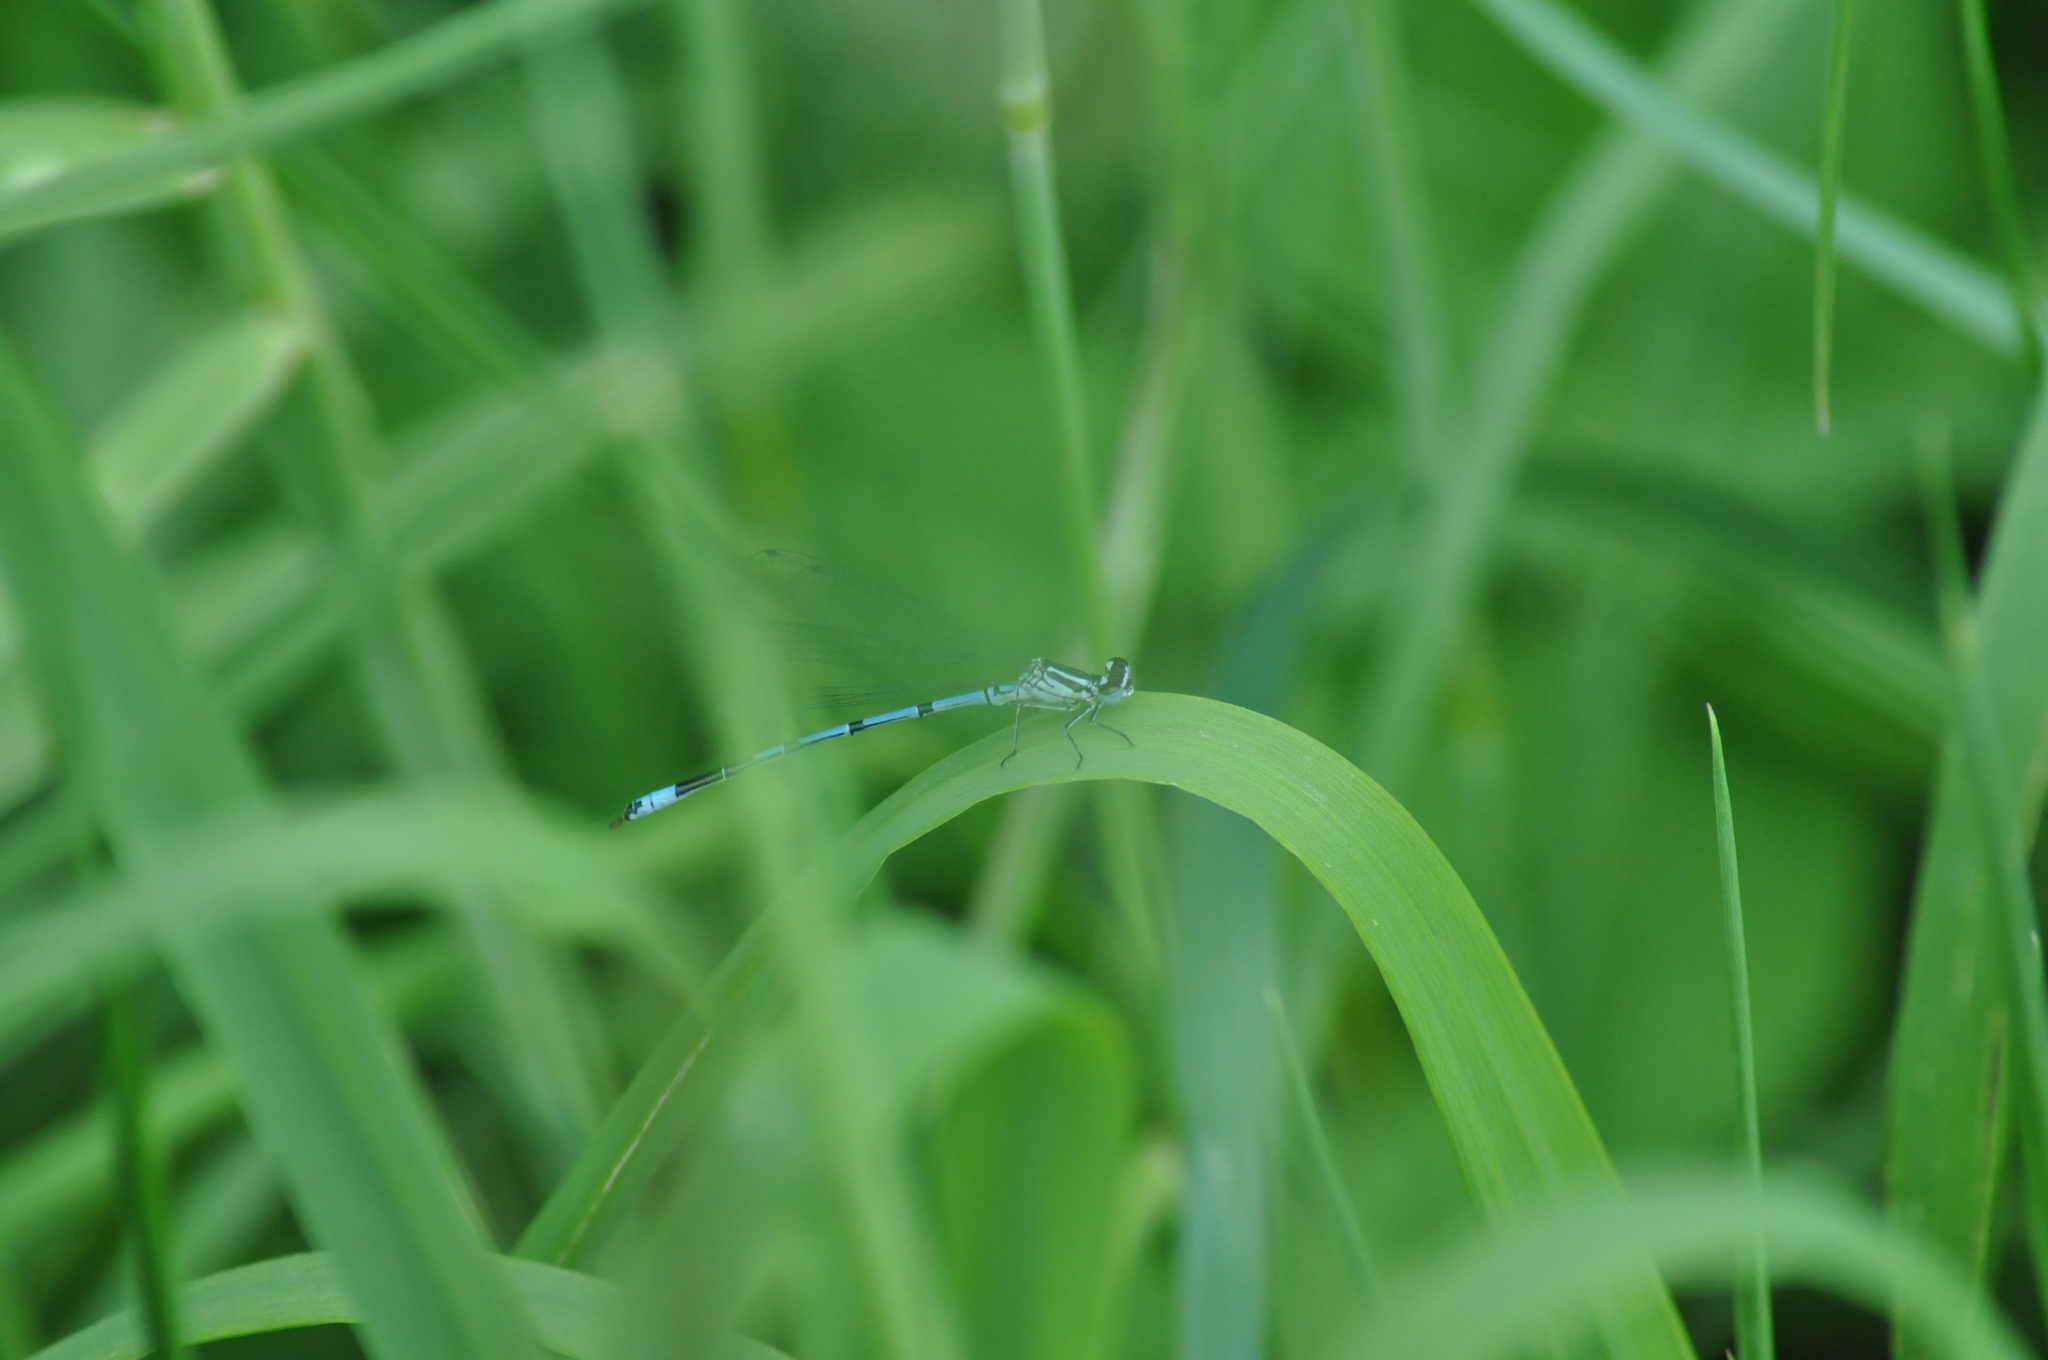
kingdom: Animalia
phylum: Arthropoda
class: Insecta
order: Odonata
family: Coenagrionidae
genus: Coenagrion
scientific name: Coenagrion puella
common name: Azure damselfly
